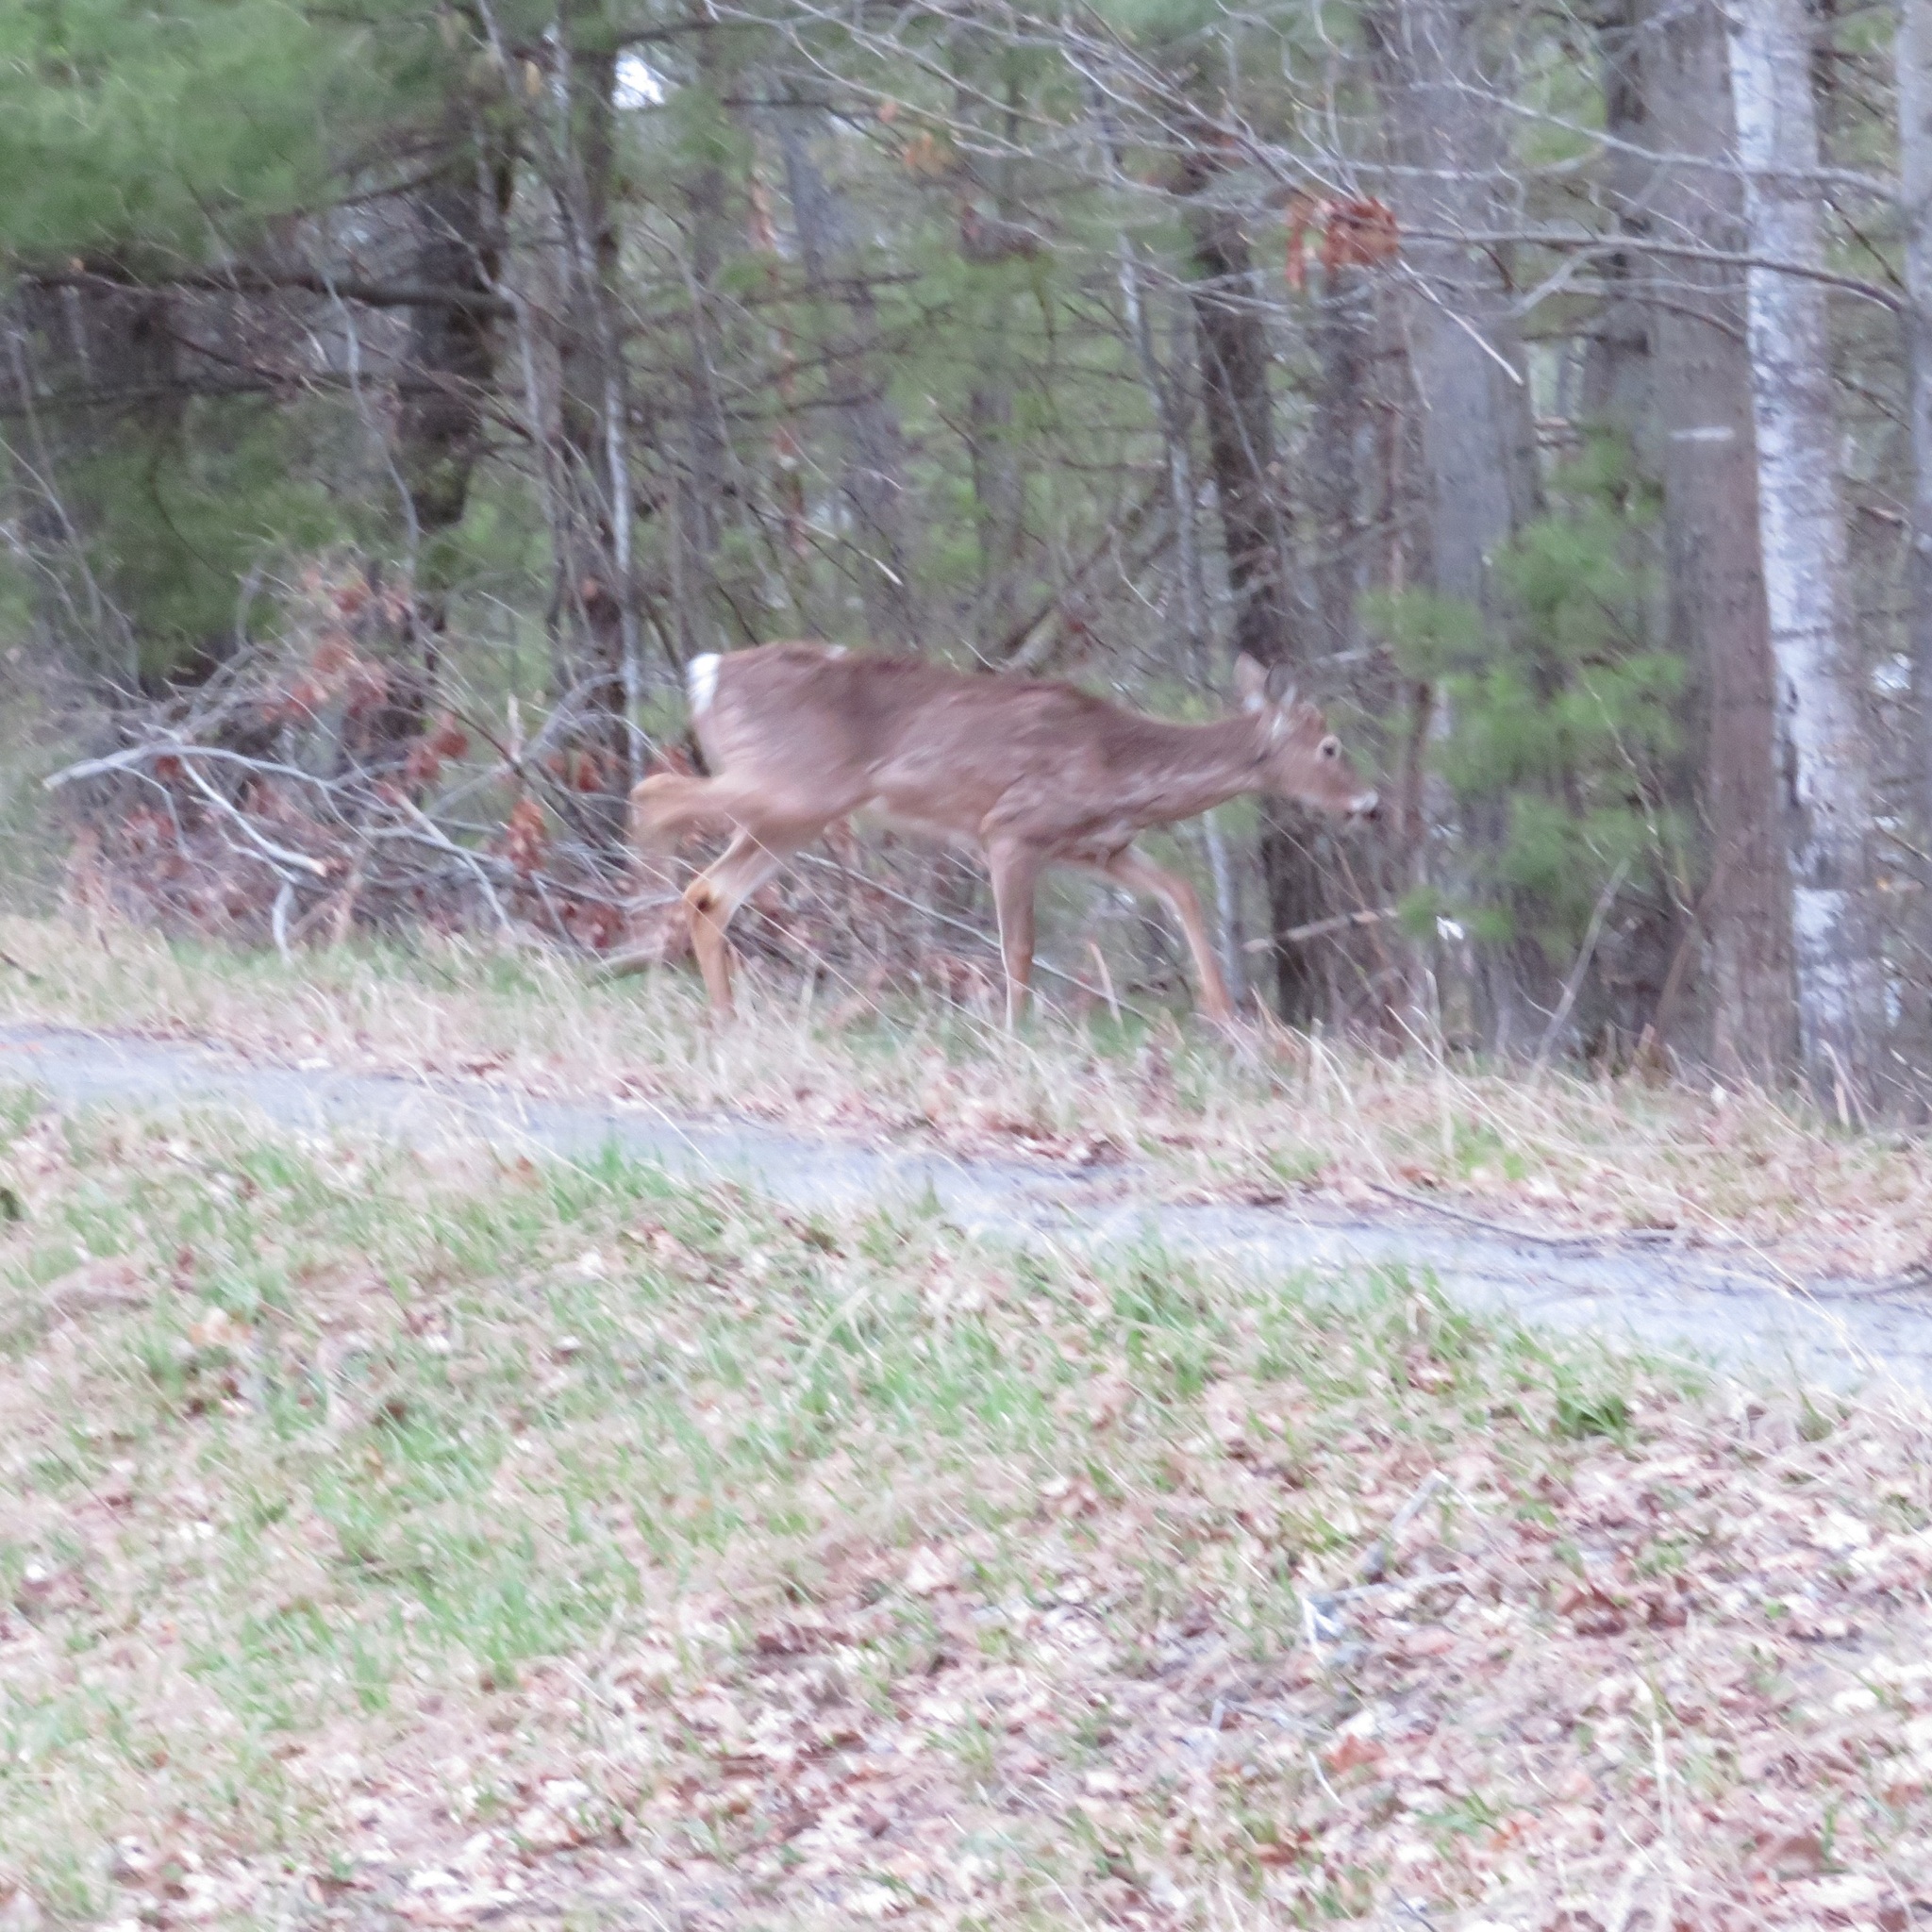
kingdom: Animalia
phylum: Chordata
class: Mammalia
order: Artiodactyla
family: Cervidae
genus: Odocoileus
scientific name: Odocoileus virginianus
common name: White-tailed deer
